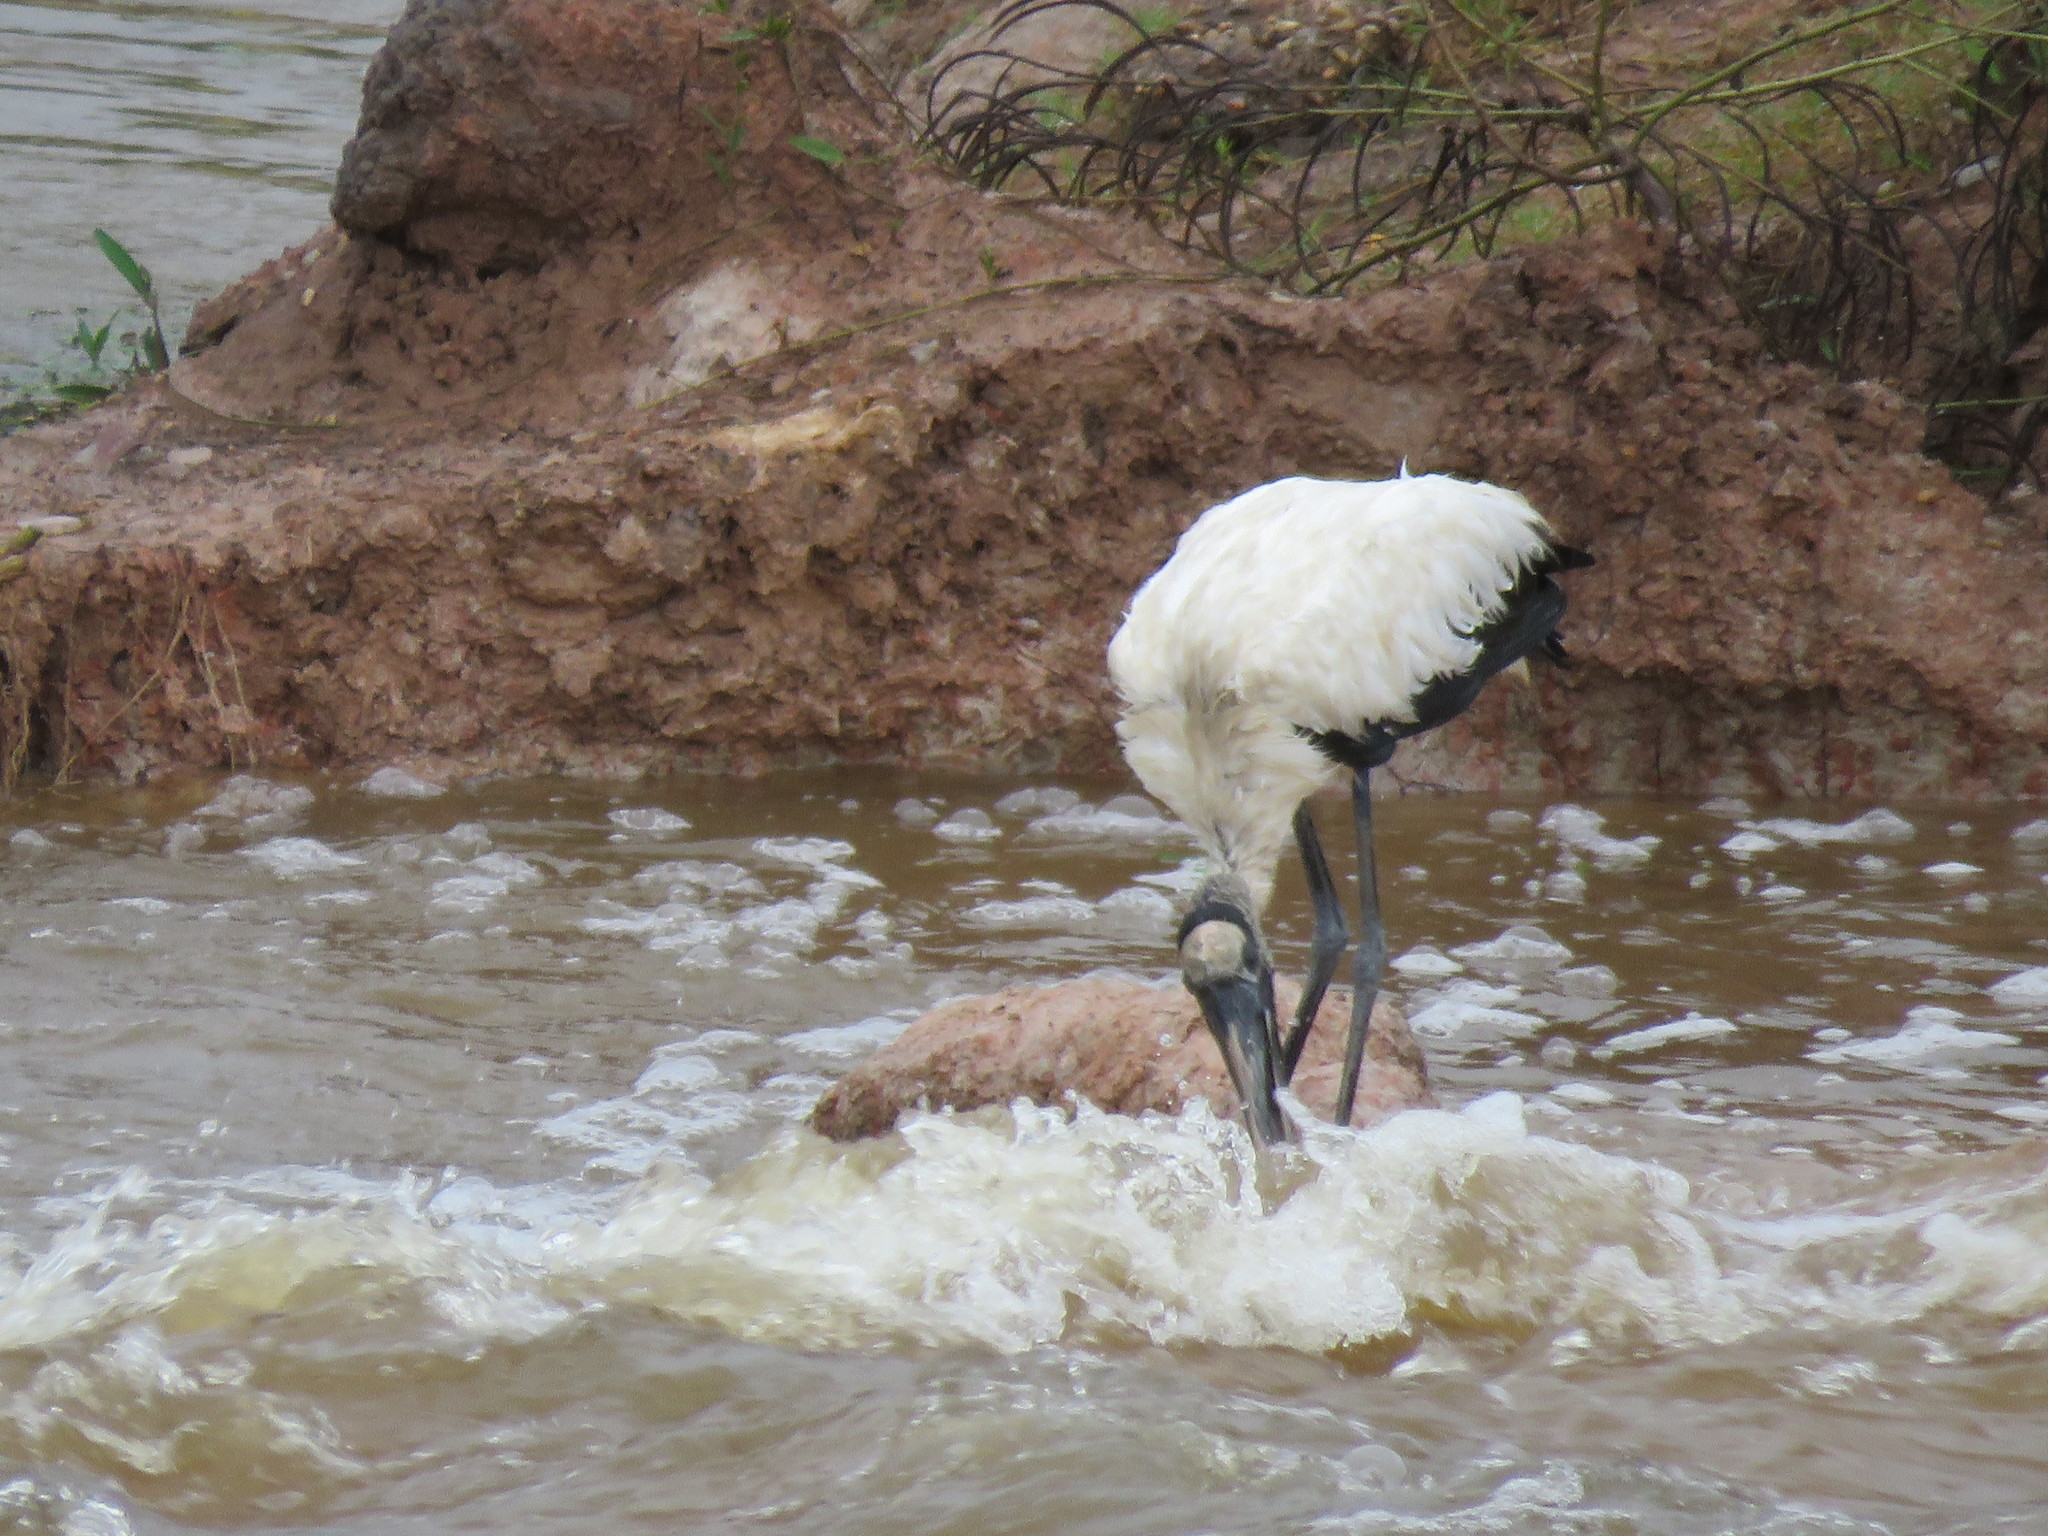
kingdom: Animalia
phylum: Chordata
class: Aves
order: Ciconiiformes
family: Ciconiidae
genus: Mycteria
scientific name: Mycteria americana
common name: Wood stork
